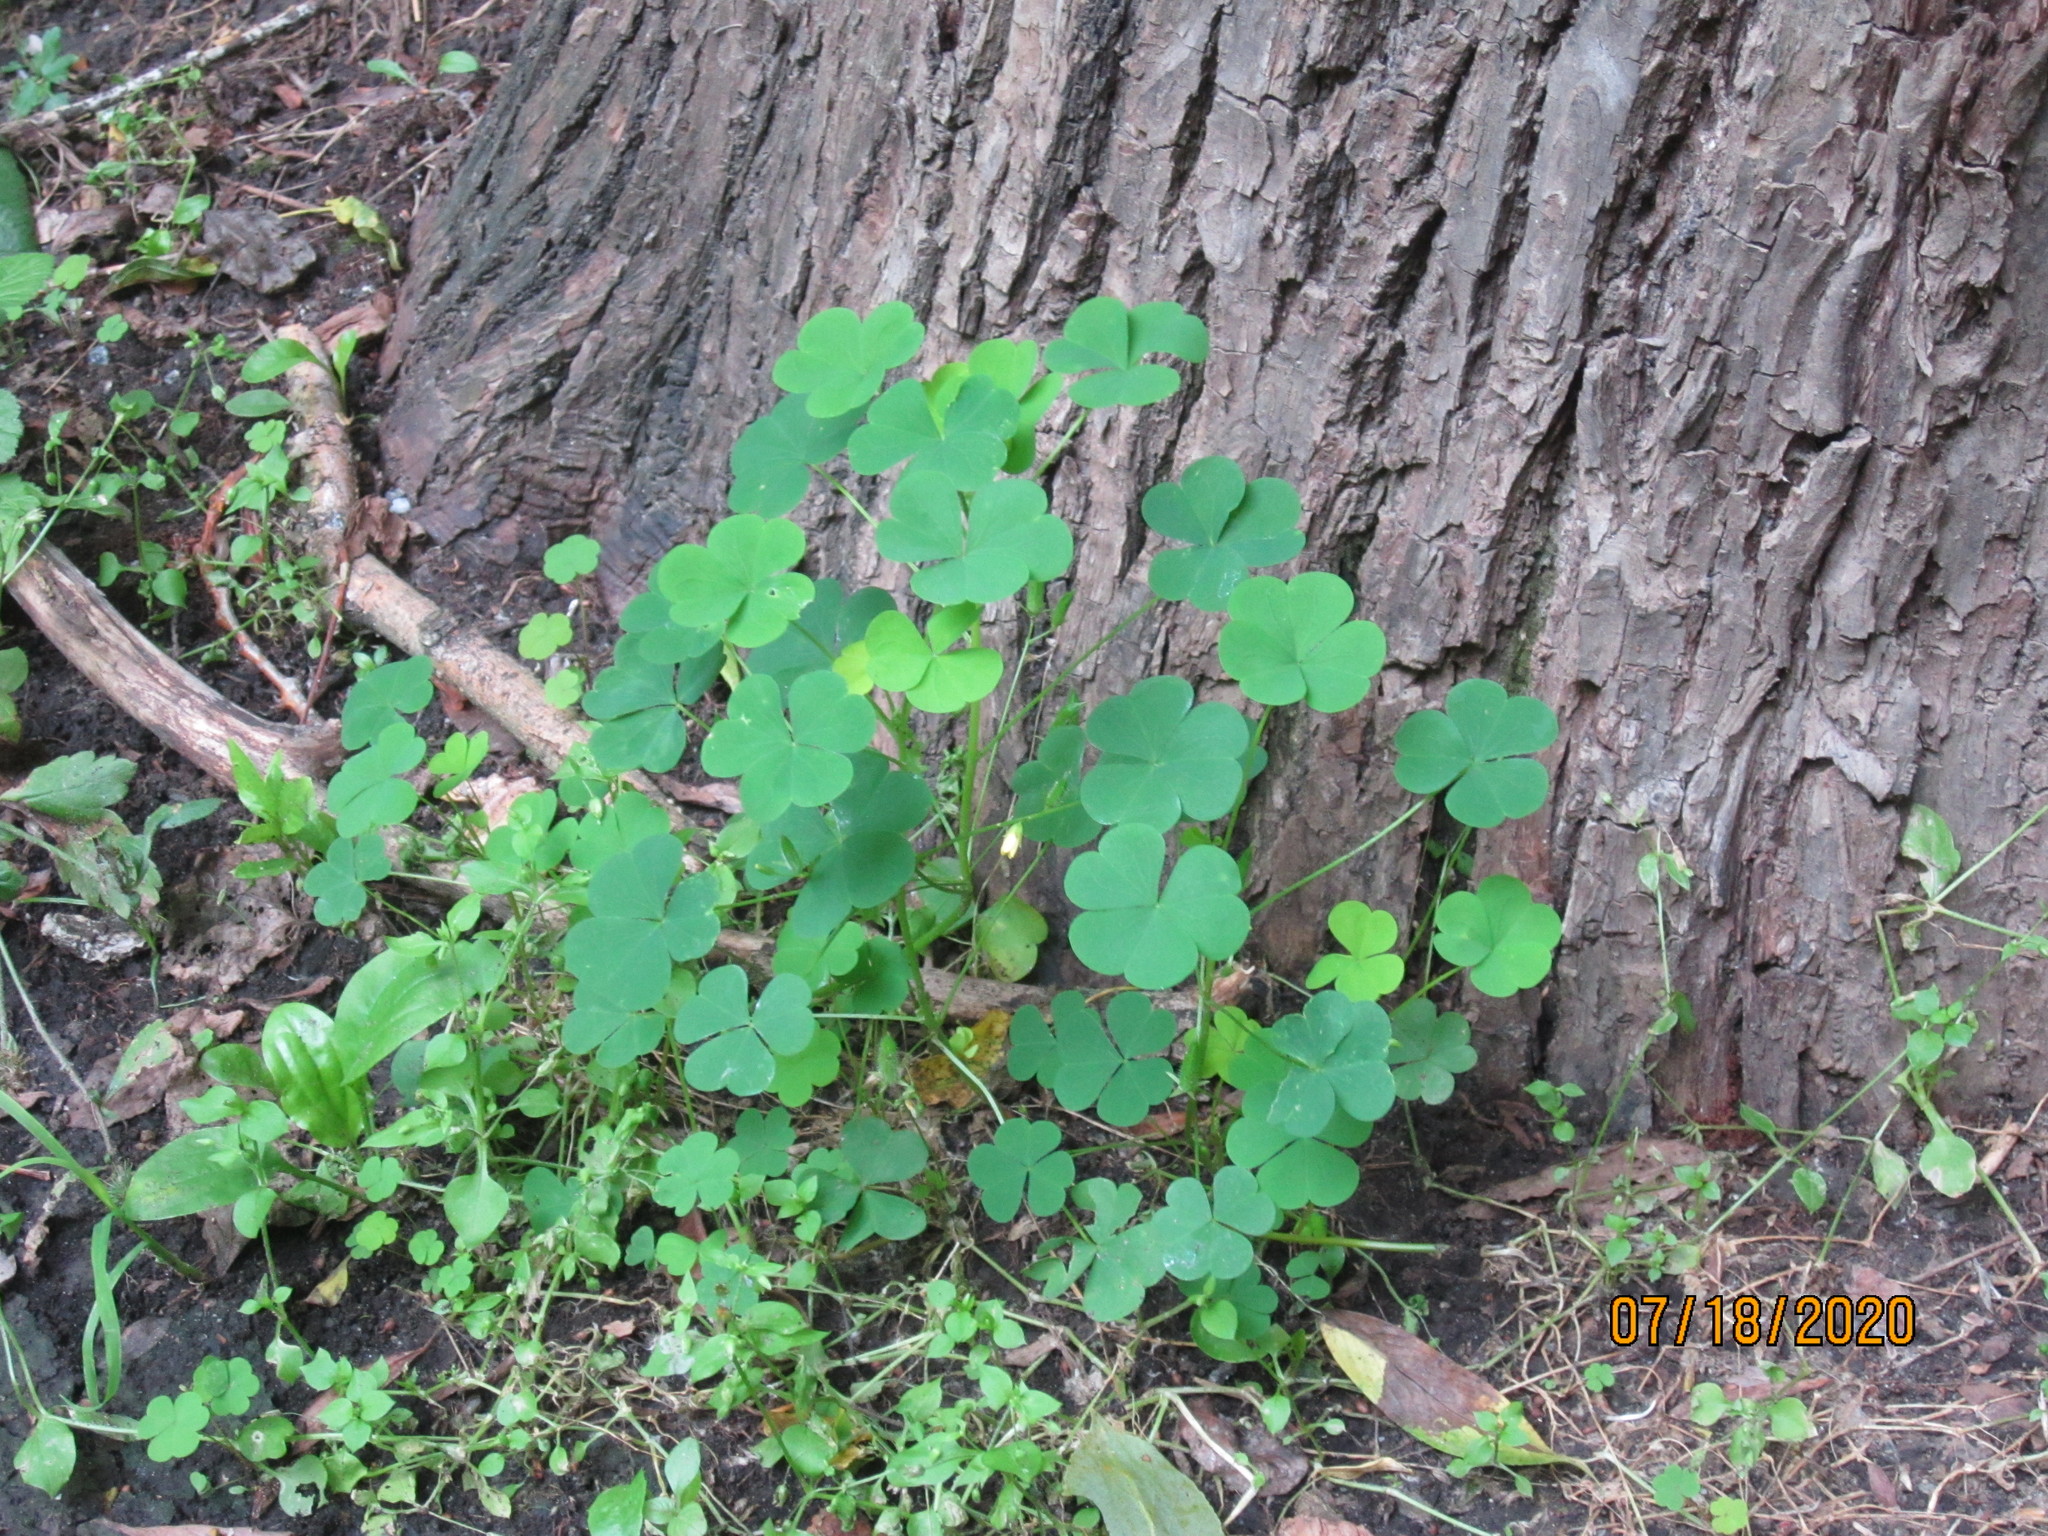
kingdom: Plantae
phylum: Tracheophyta
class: Magnoliopsida
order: Oxalidales
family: Oxalidaceae
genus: Oxalis
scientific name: Oxalis stricta
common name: Upright yellow-sorrel
